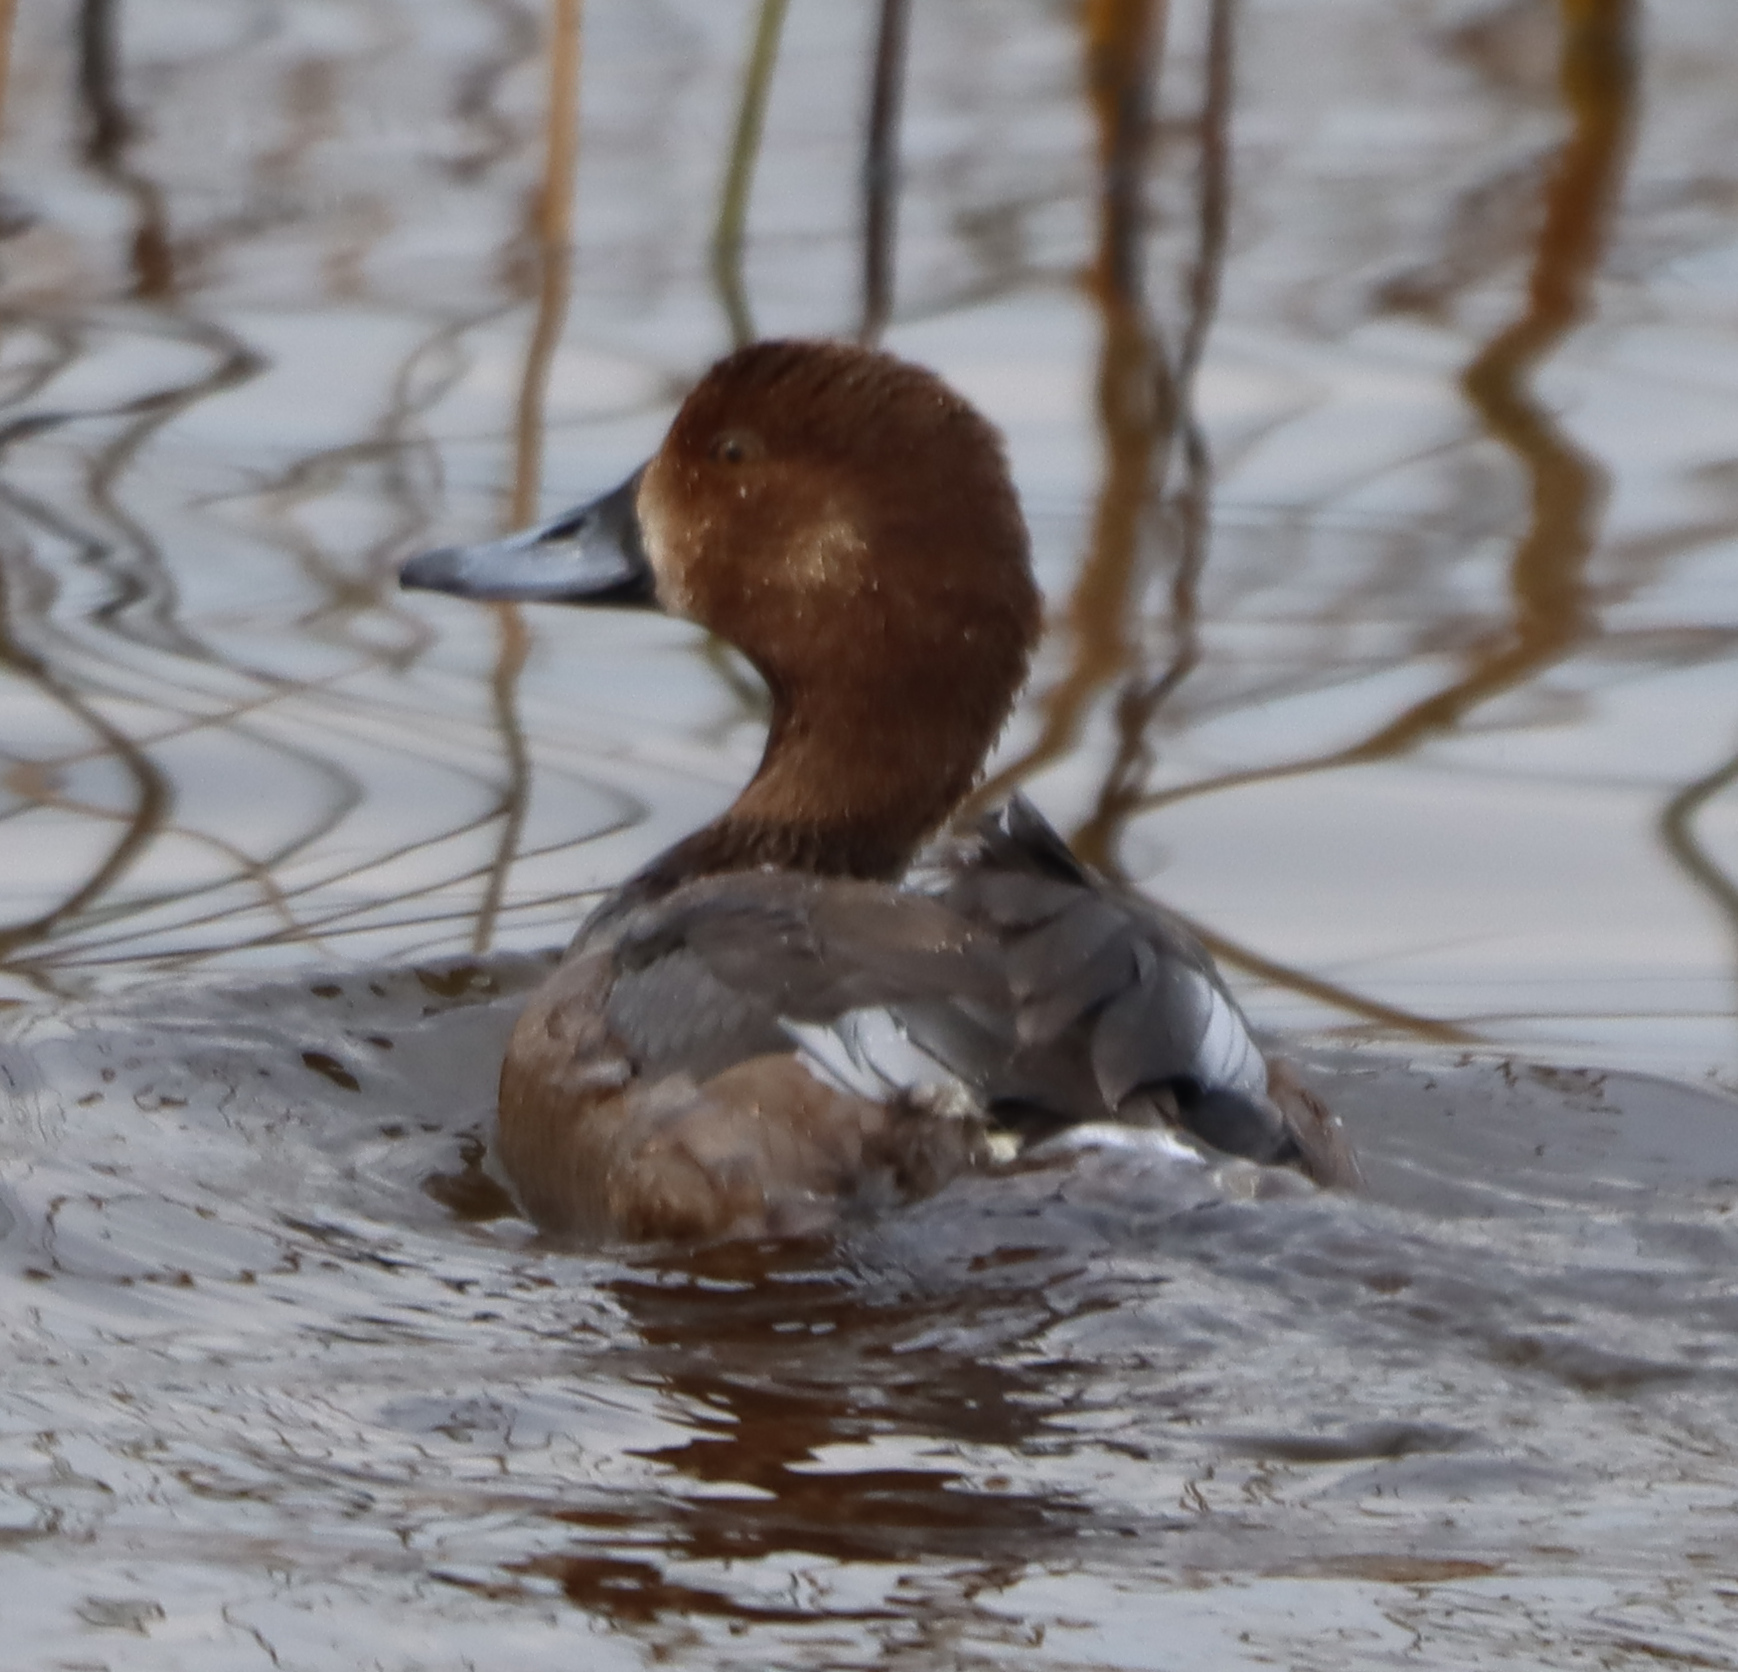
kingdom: Animalia
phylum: Chordata
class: Aves
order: Anseriformes
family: Anatidae
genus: Aythya
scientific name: Aythya americana
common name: Redhead
